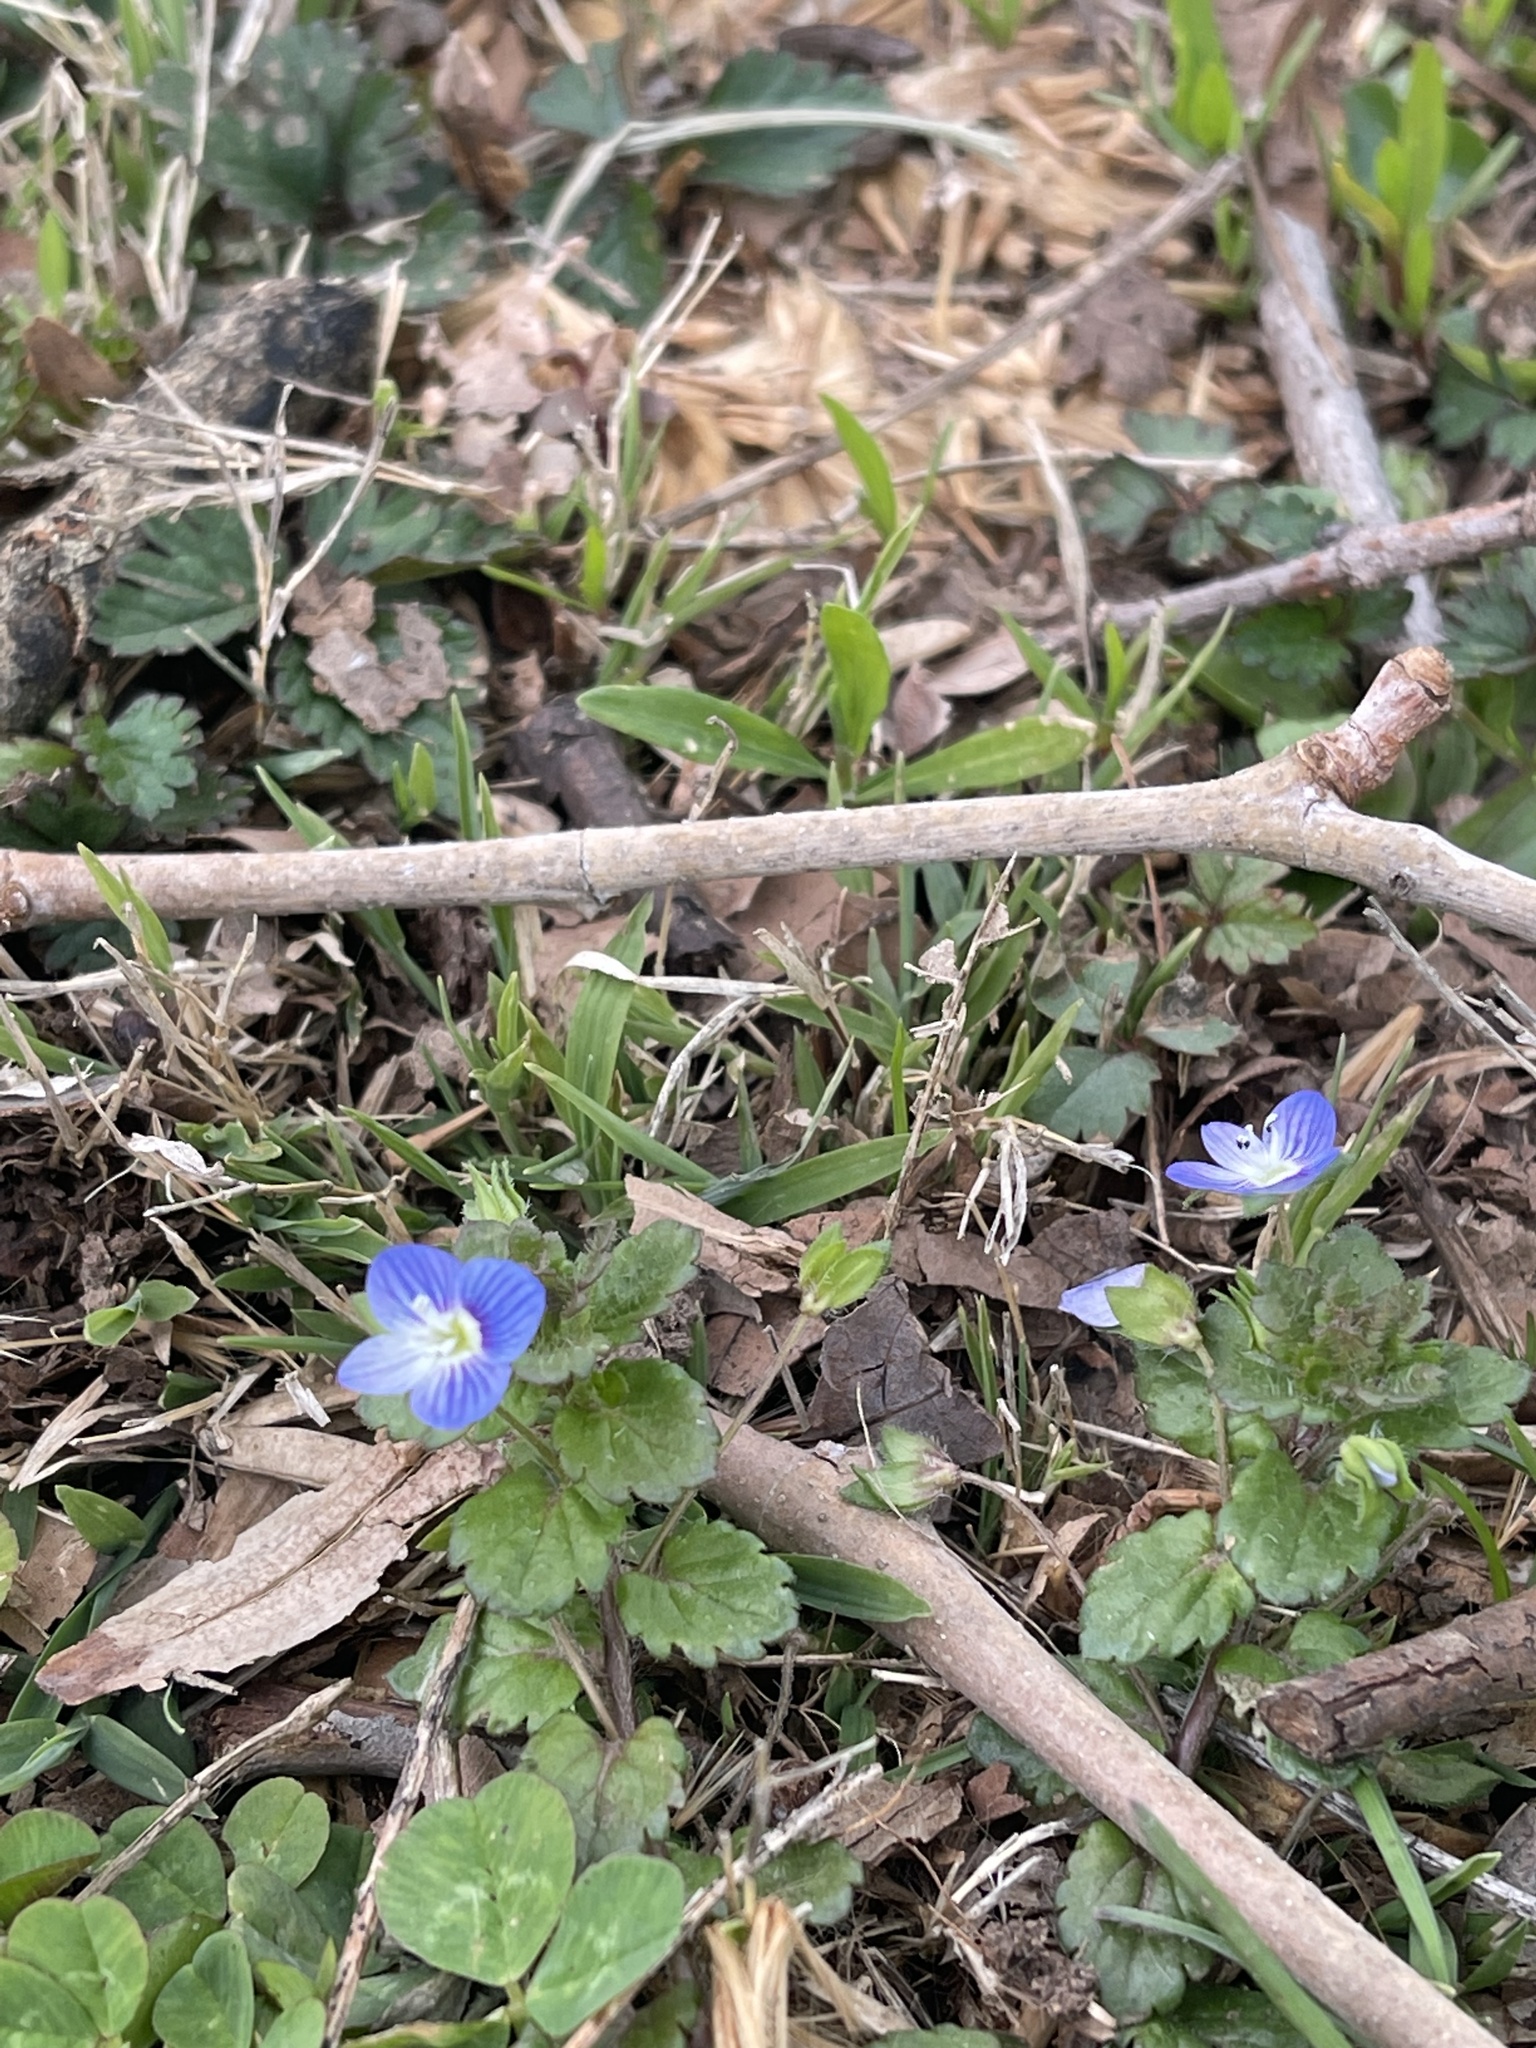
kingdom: Plantae
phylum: Tracheophyta
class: Magnoliopsida
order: Lamiales
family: Plantaginaceae
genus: Veronica
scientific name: Veronica persica
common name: Common field-speedwell
